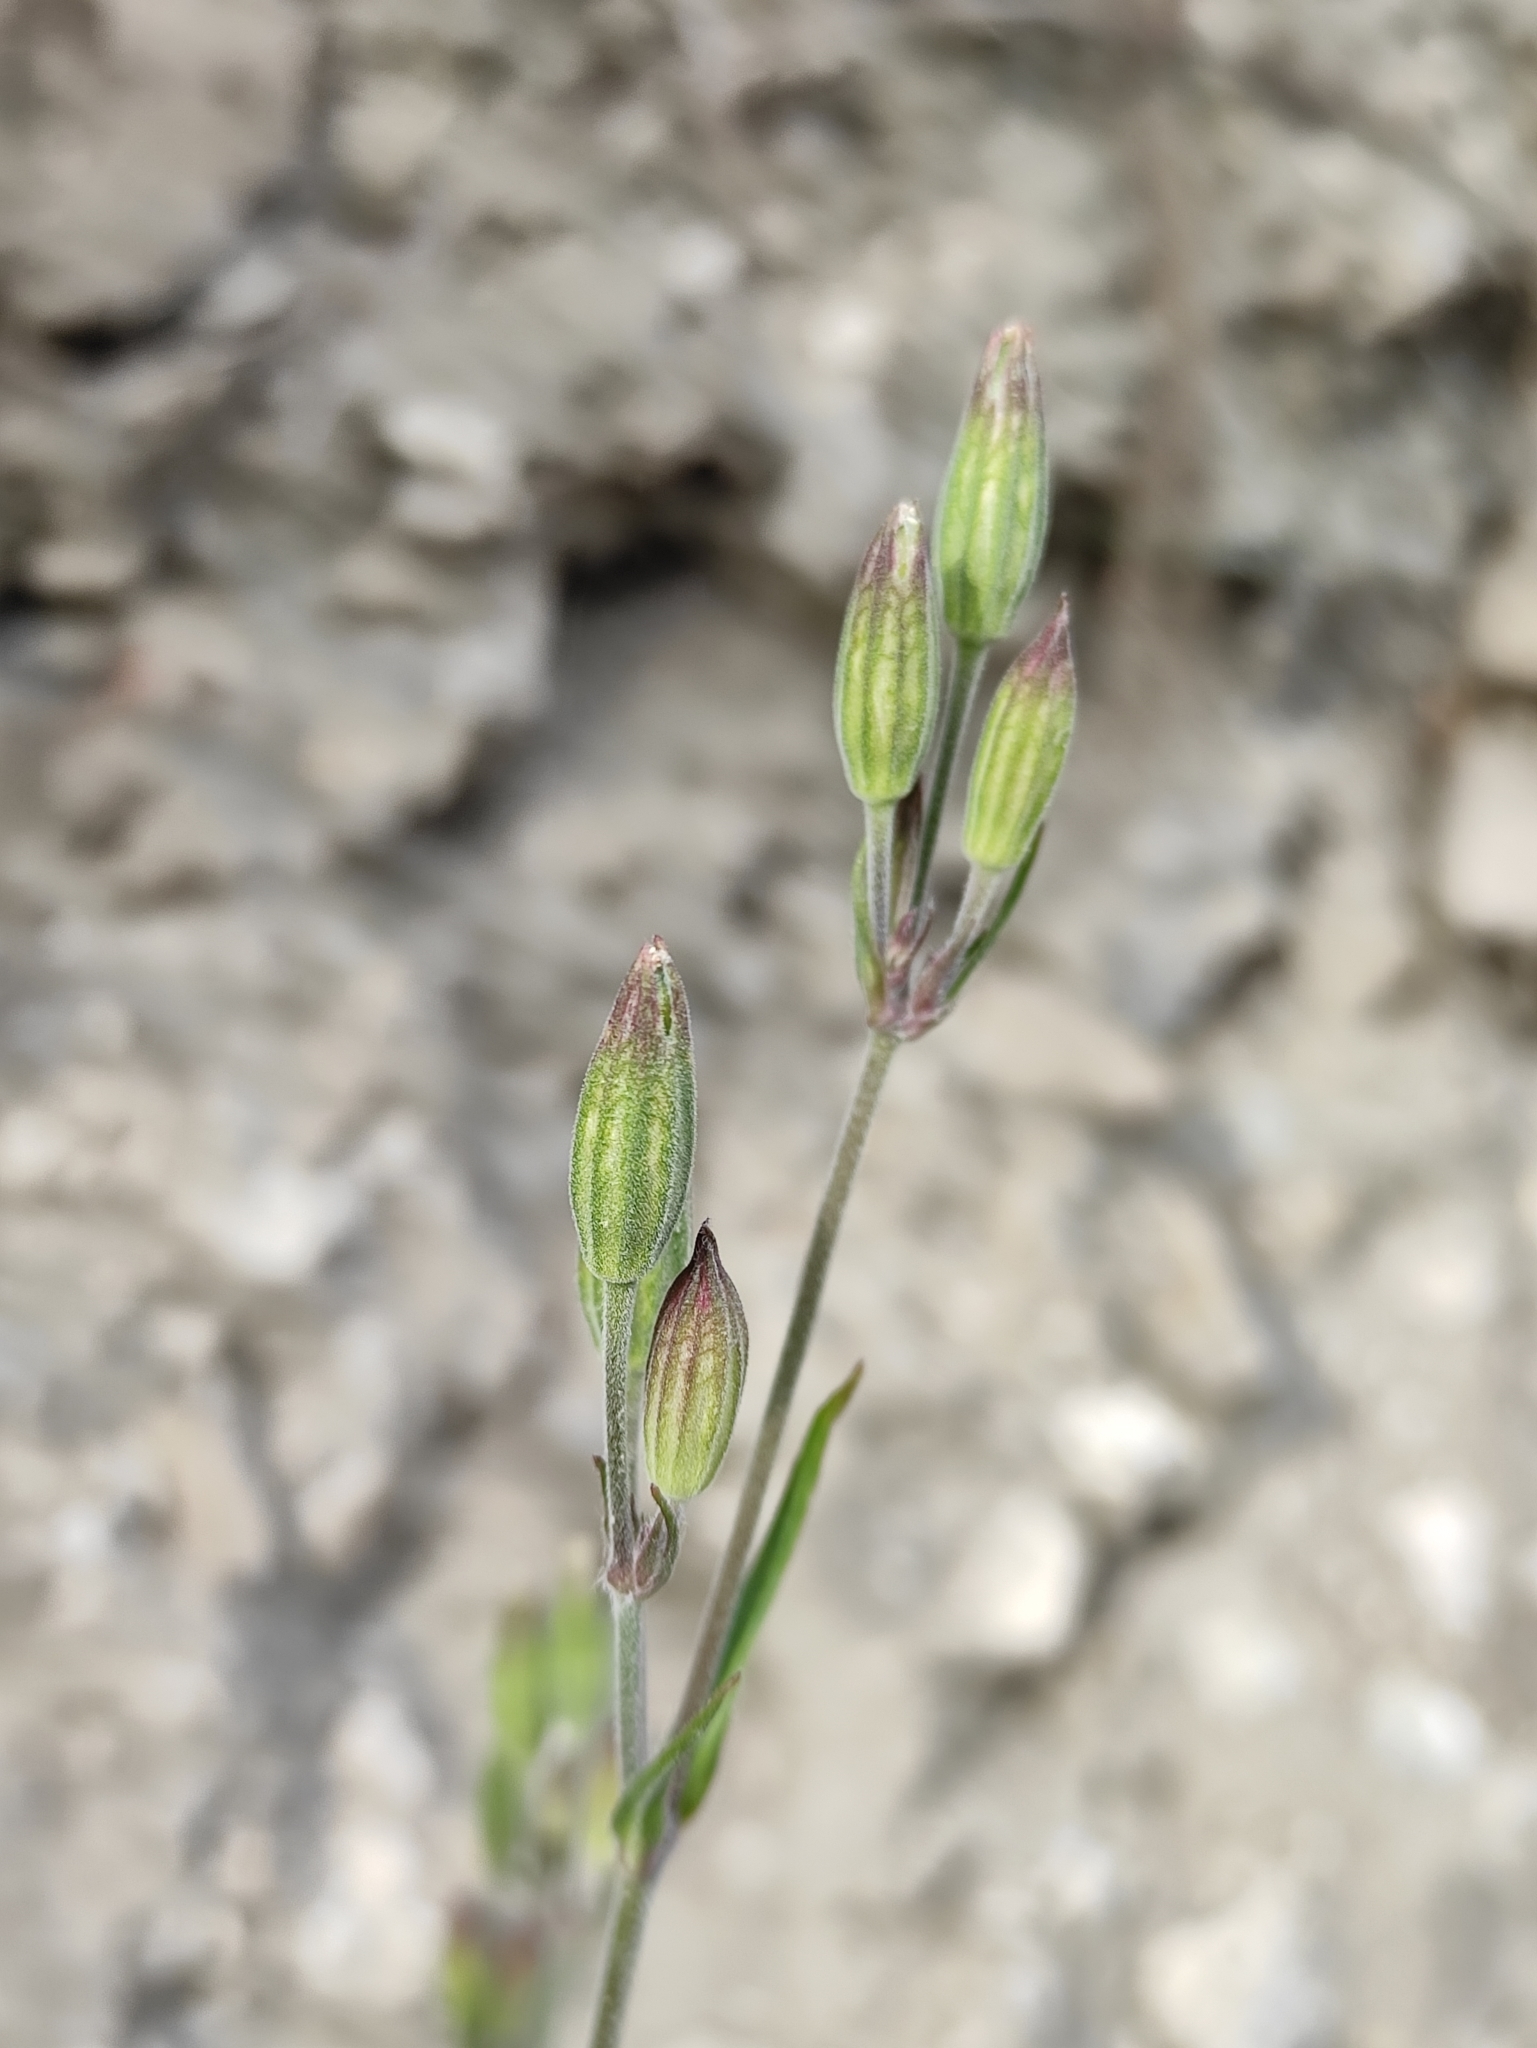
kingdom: Plantae
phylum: Tracheophyta
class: Magnoliopsida
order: Caryophyllales
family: Caryophyllaceae
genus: Silene
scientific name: Silene aprica
